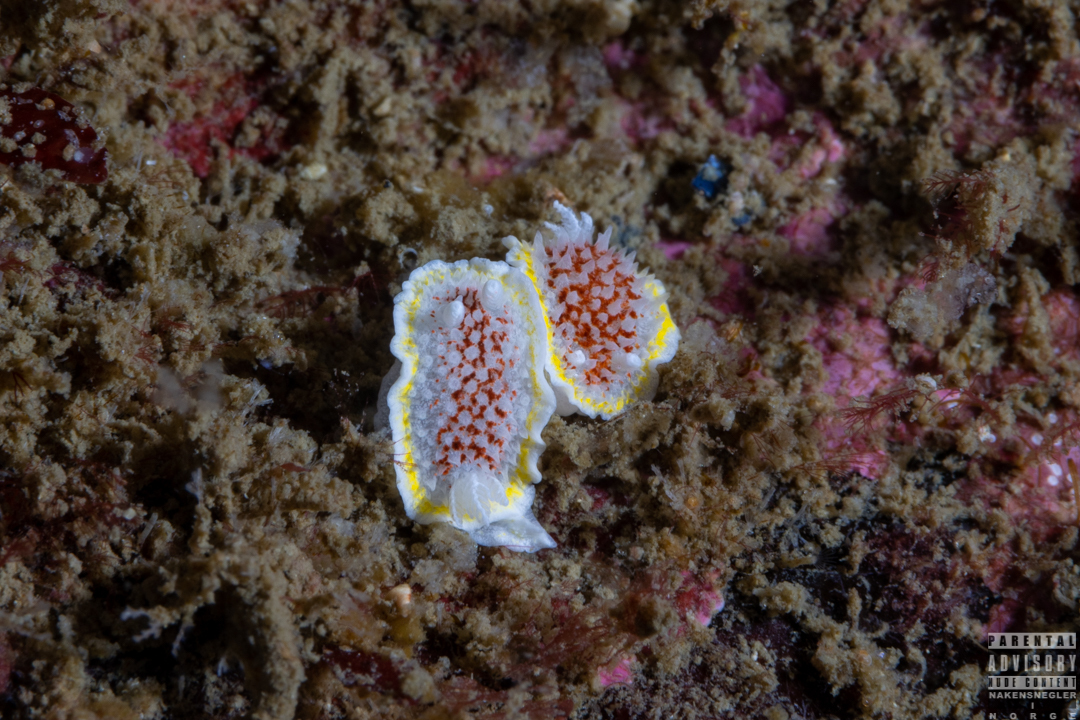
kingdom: Animalia
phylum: Mollusca
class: Gastropoda
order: Nudibranchia
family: Calycidorididae
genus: Diaphorodoris
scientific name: Diaphorodoris luteocincta
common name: Fried egg nudibranch
